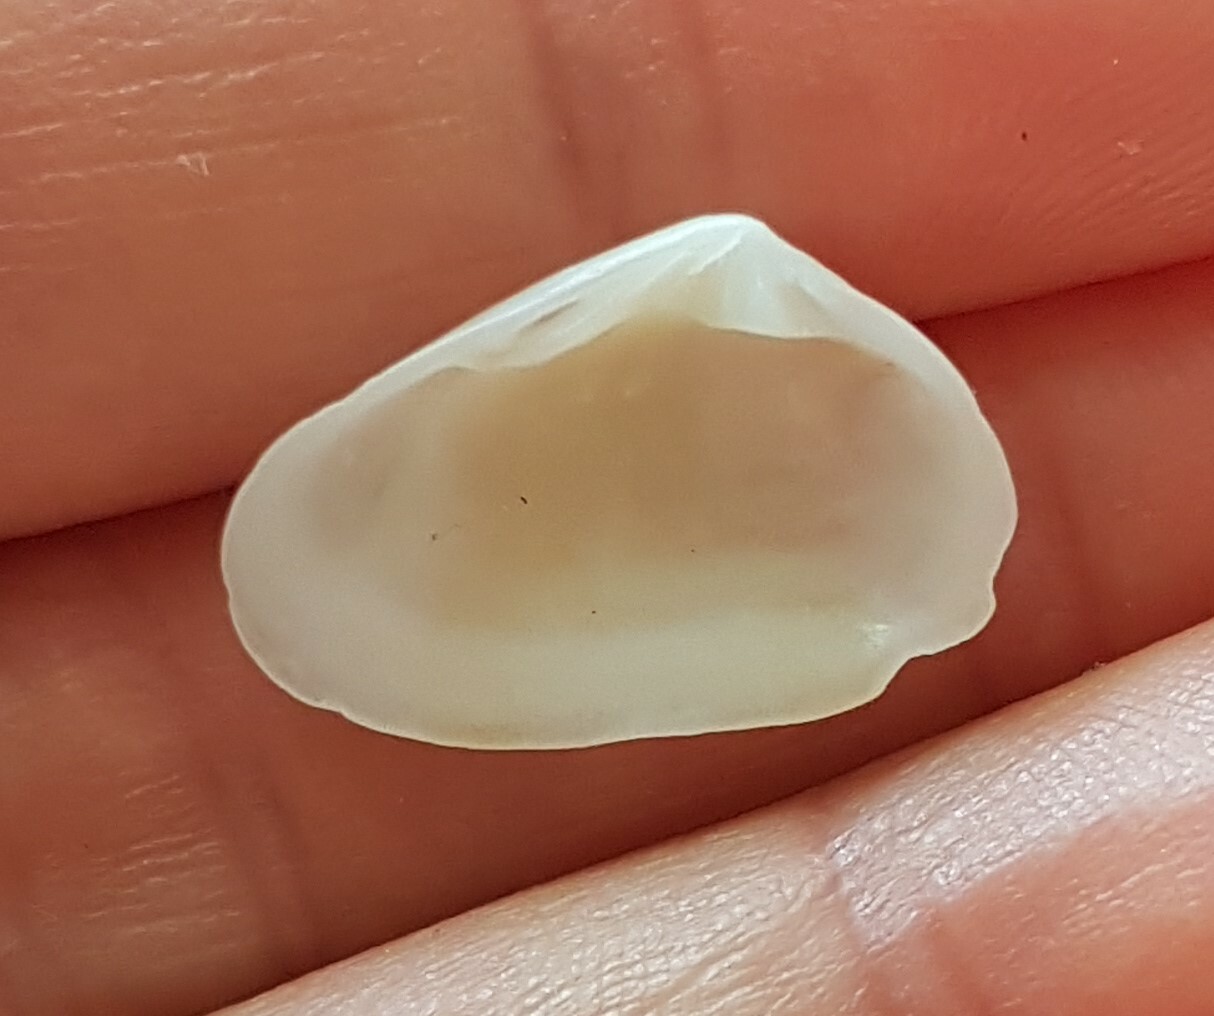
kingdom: Animalia
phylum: Mollusca
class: Bivalvia
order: Venerida
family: Mesodesmatidae
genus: Donacilla
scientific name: Donacilla cornea
